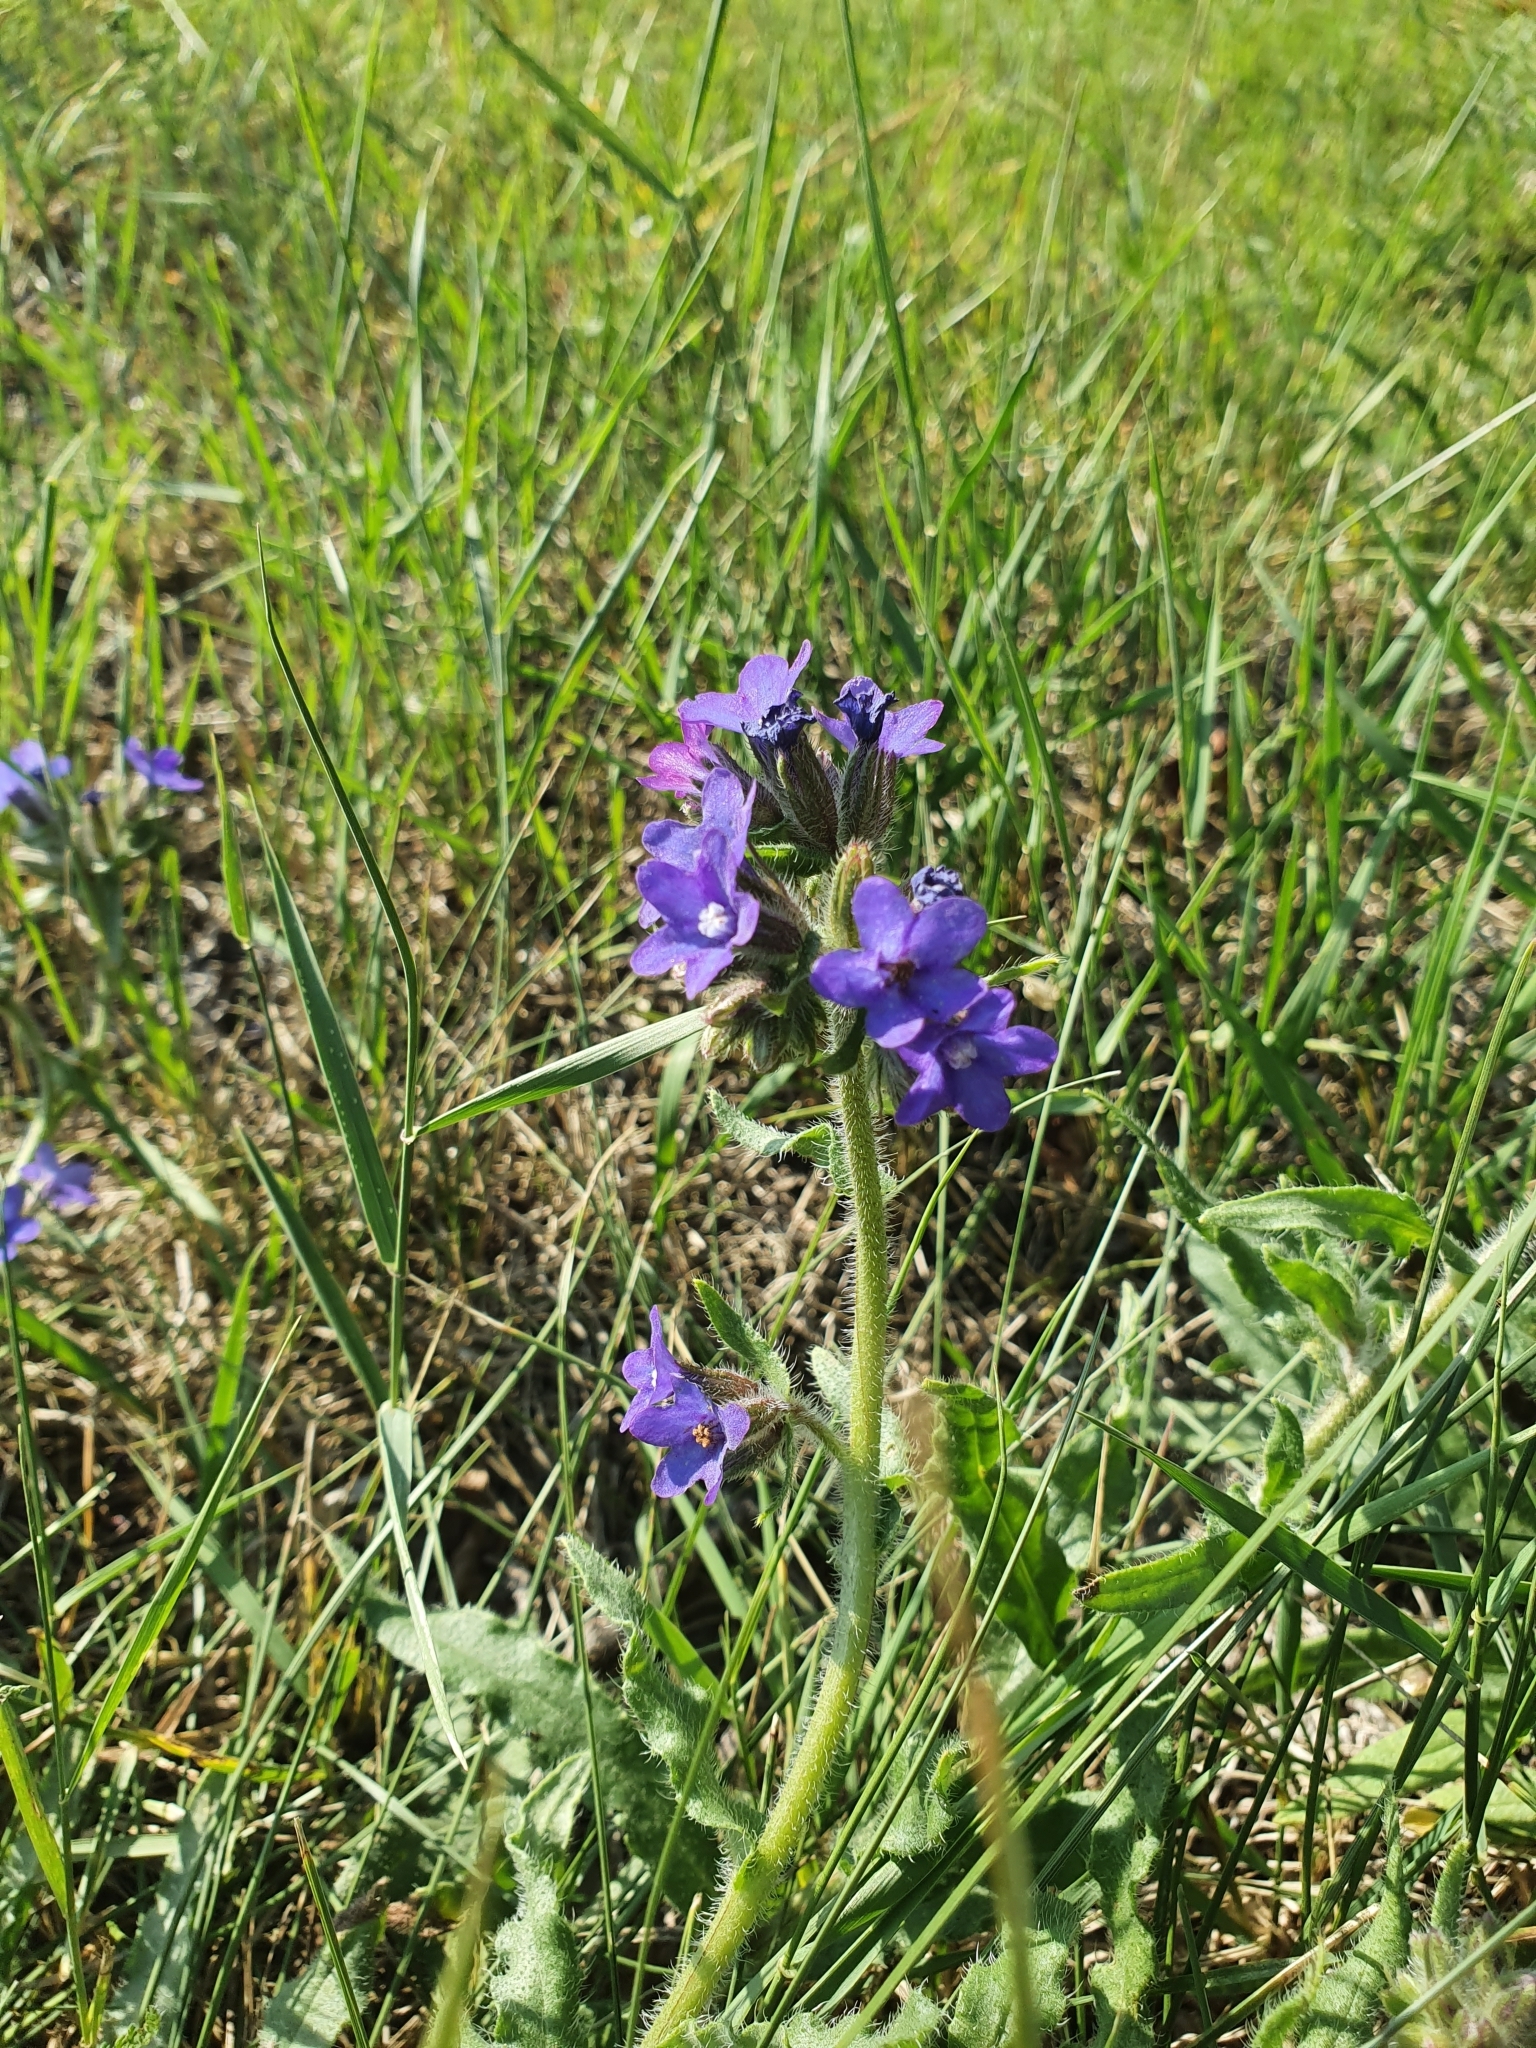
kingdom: Plantae
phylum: Tracheophyta
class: Magnoliopsida
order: Boraginales
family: Boraginaceae
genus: Anchusa
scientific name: Anchusa officinalis
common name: Alkanet
